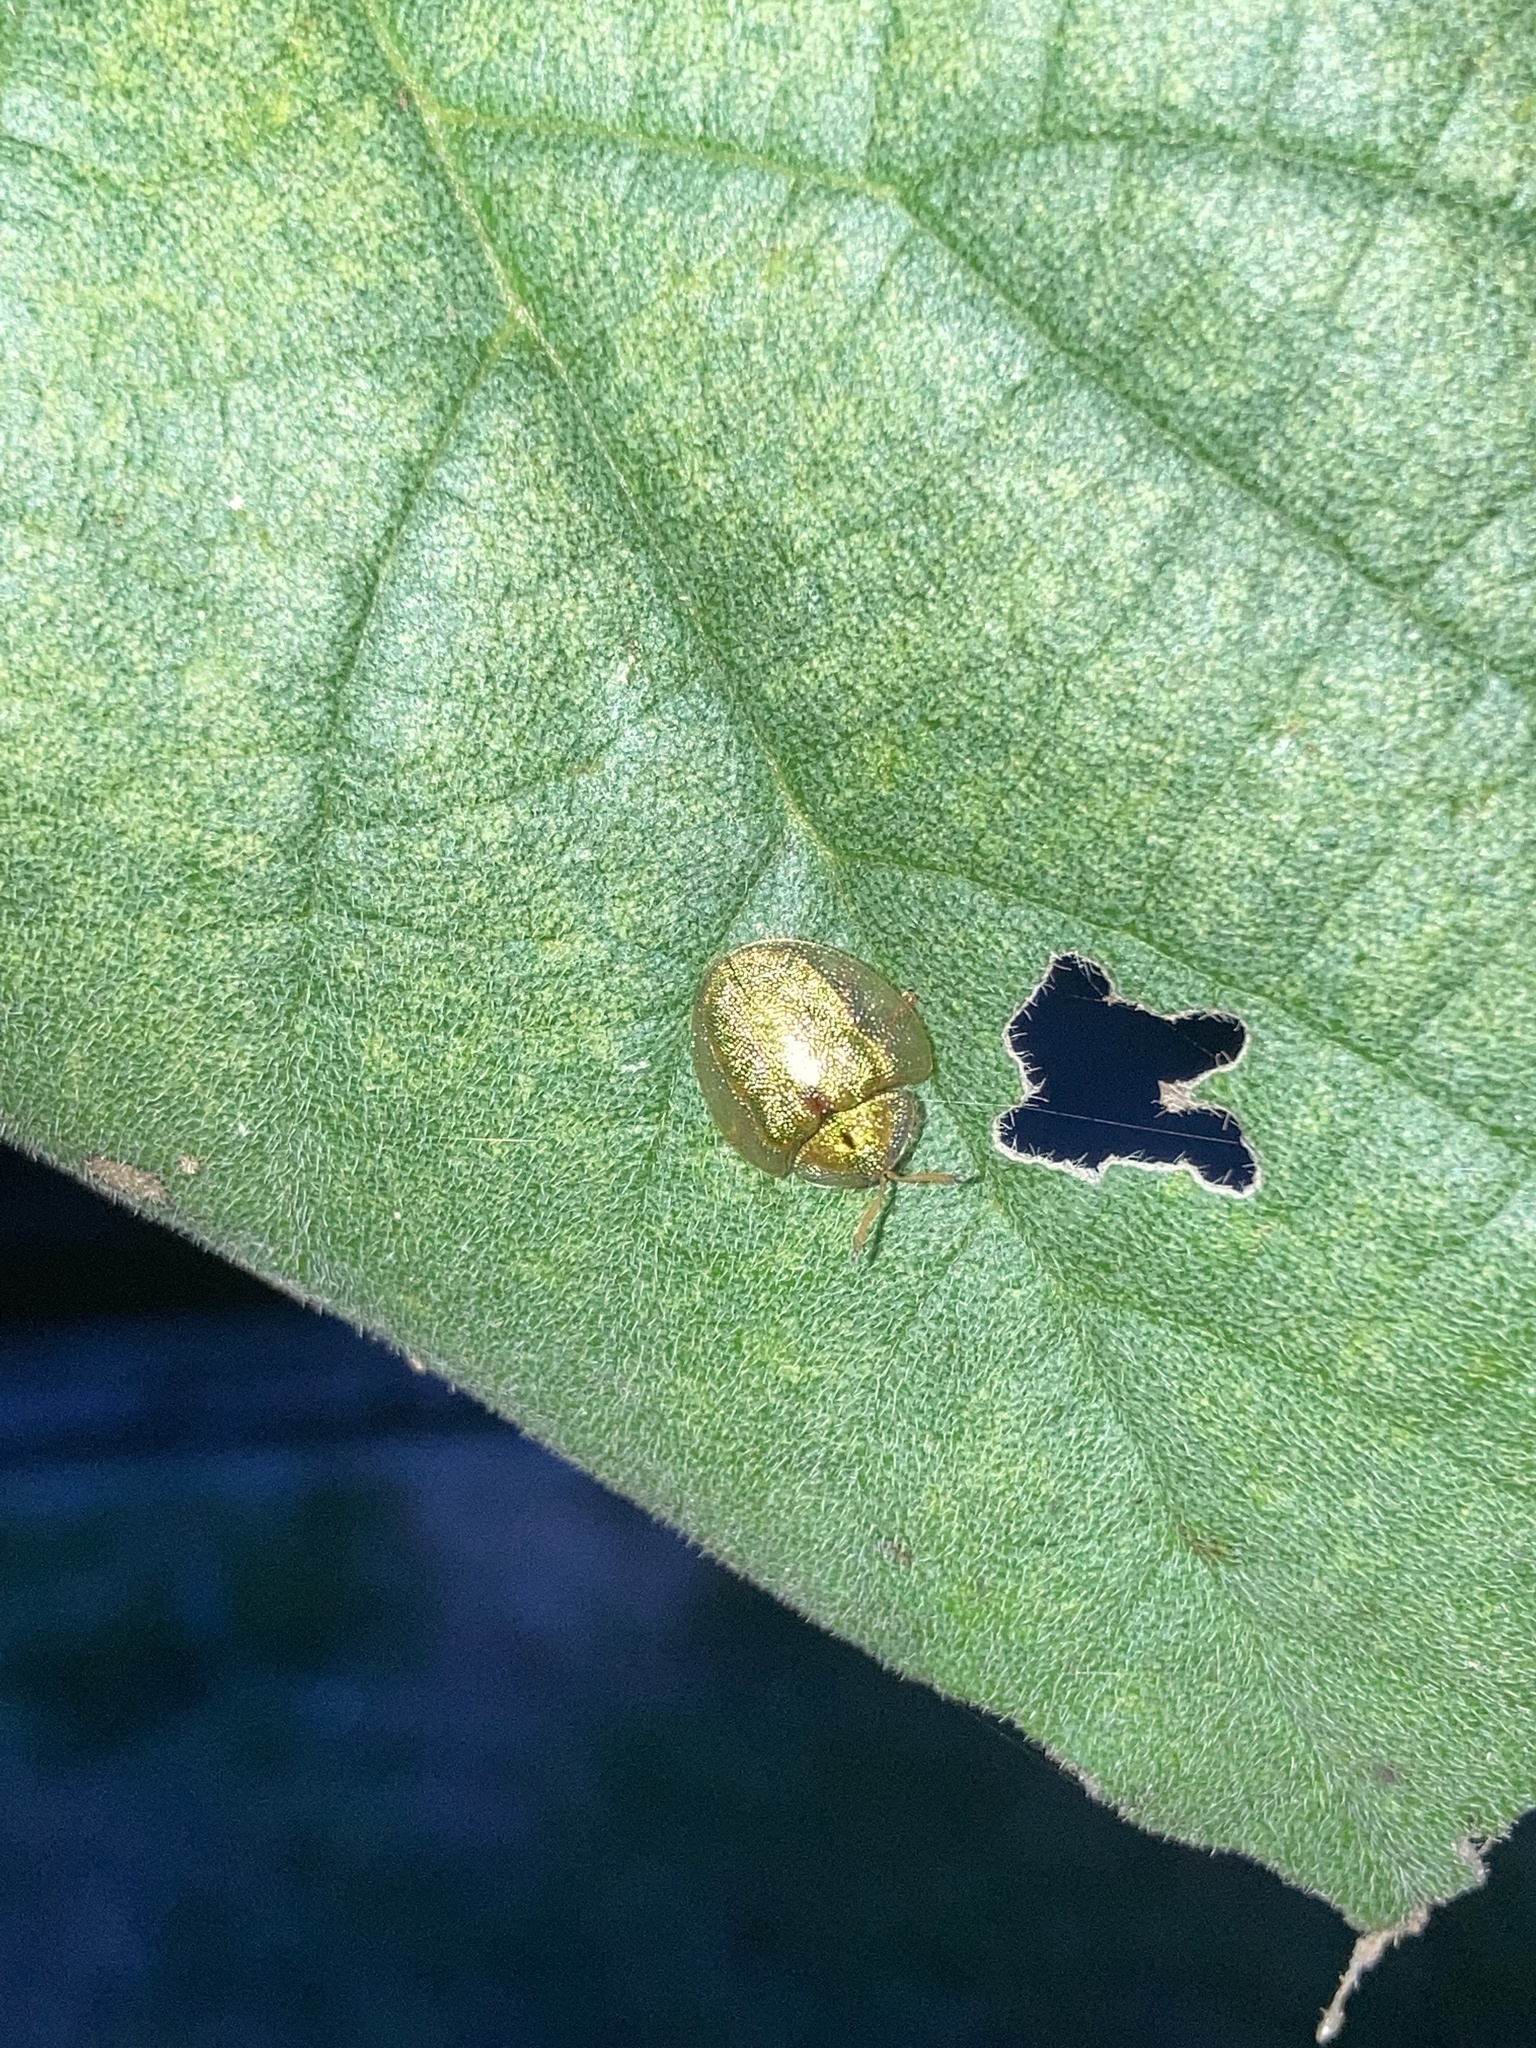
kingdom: Animalia
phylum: Arthropoda
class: Insecta
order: Coleoptera
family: Chrysomelidae
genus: Eurypepla
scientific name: Eurypepla calochroma
